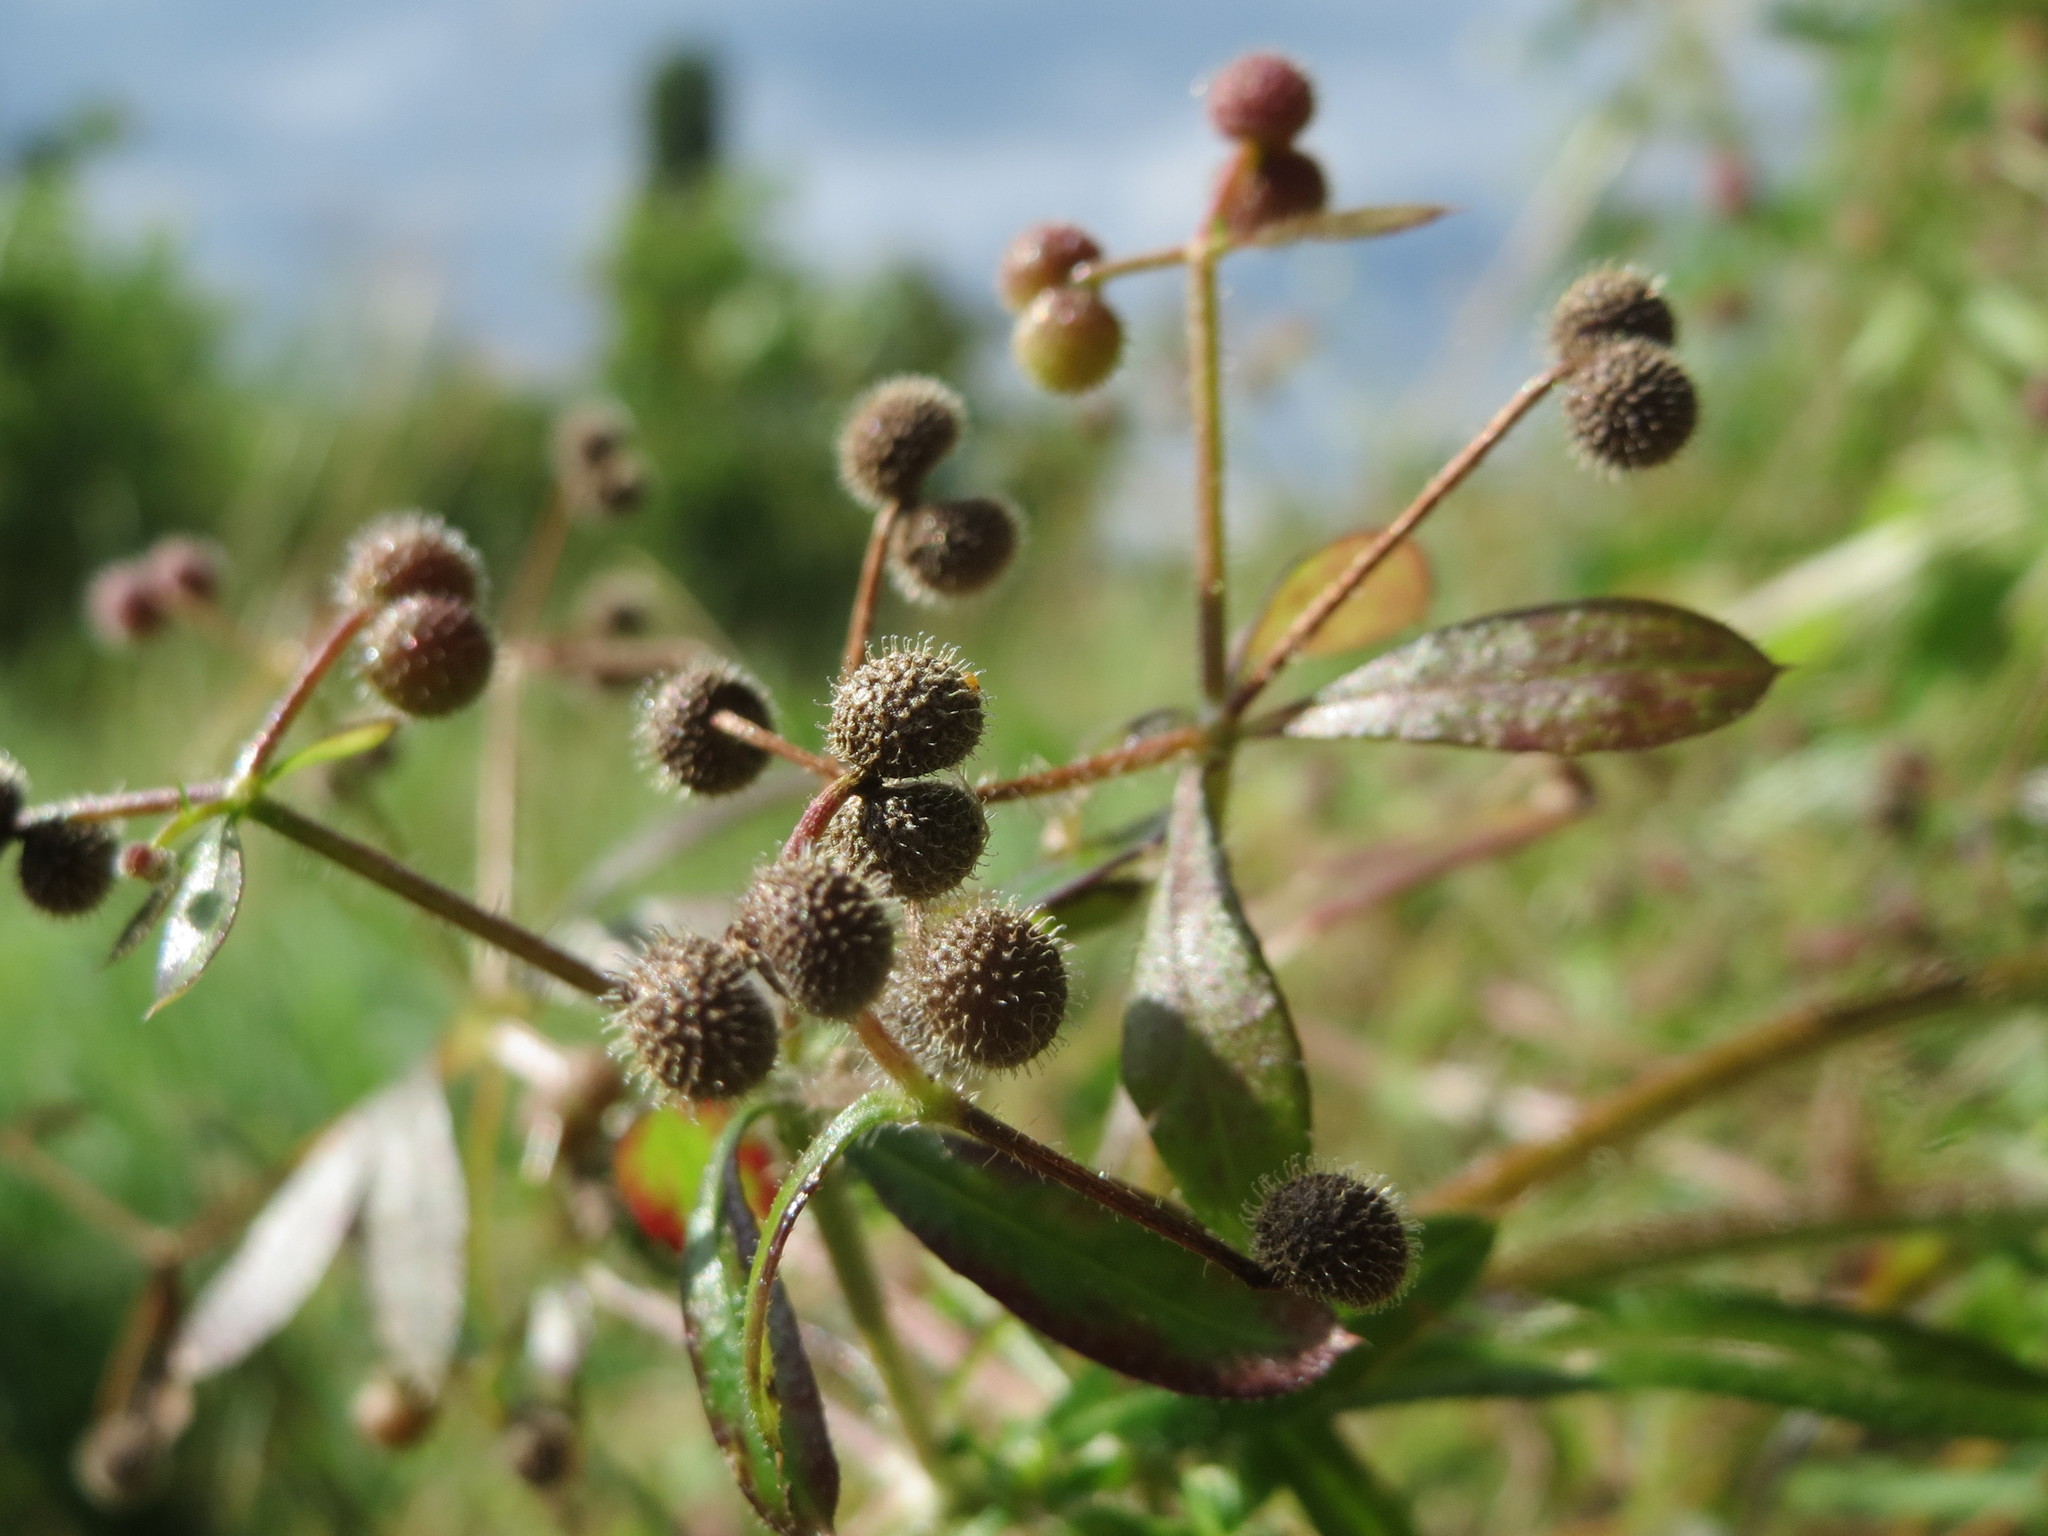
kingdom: Plantae
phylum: Tracheophyta
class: Magnoliopsida
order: Gentianales
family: Rubiaceae
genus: Galium
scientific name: Galium aparine
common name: Cleavers
